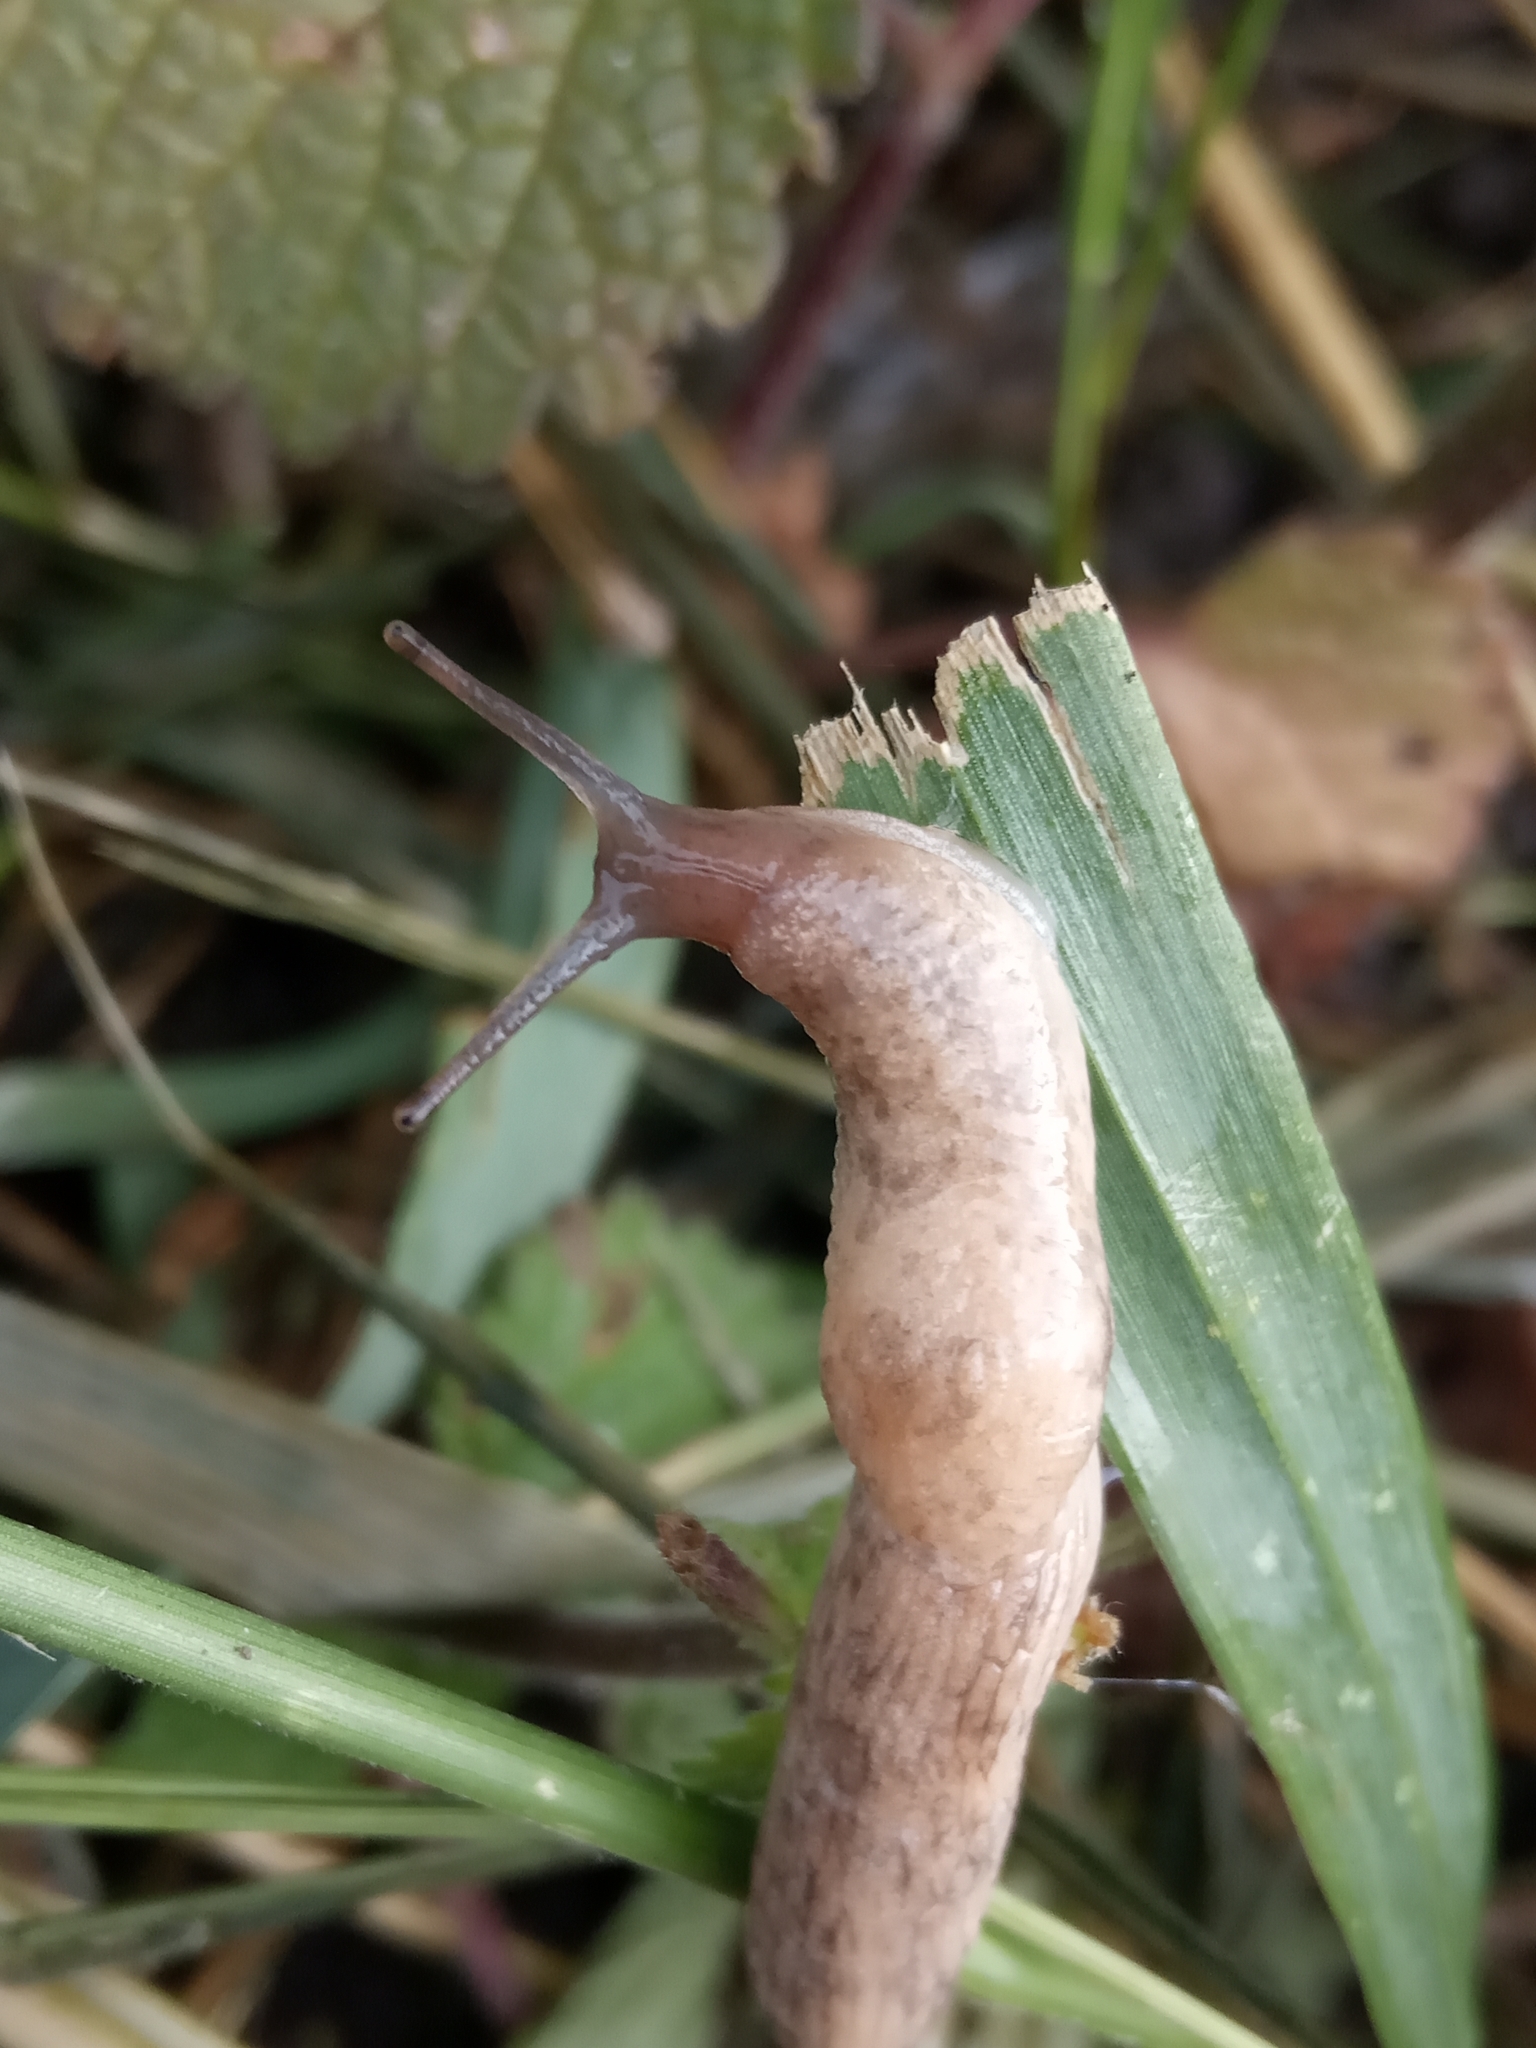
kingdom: Animalia
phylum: Mollusca
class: Gastropoda
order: Stylommatophora
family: Agriolimacidae
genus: Deroceras
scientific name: Deroceras
